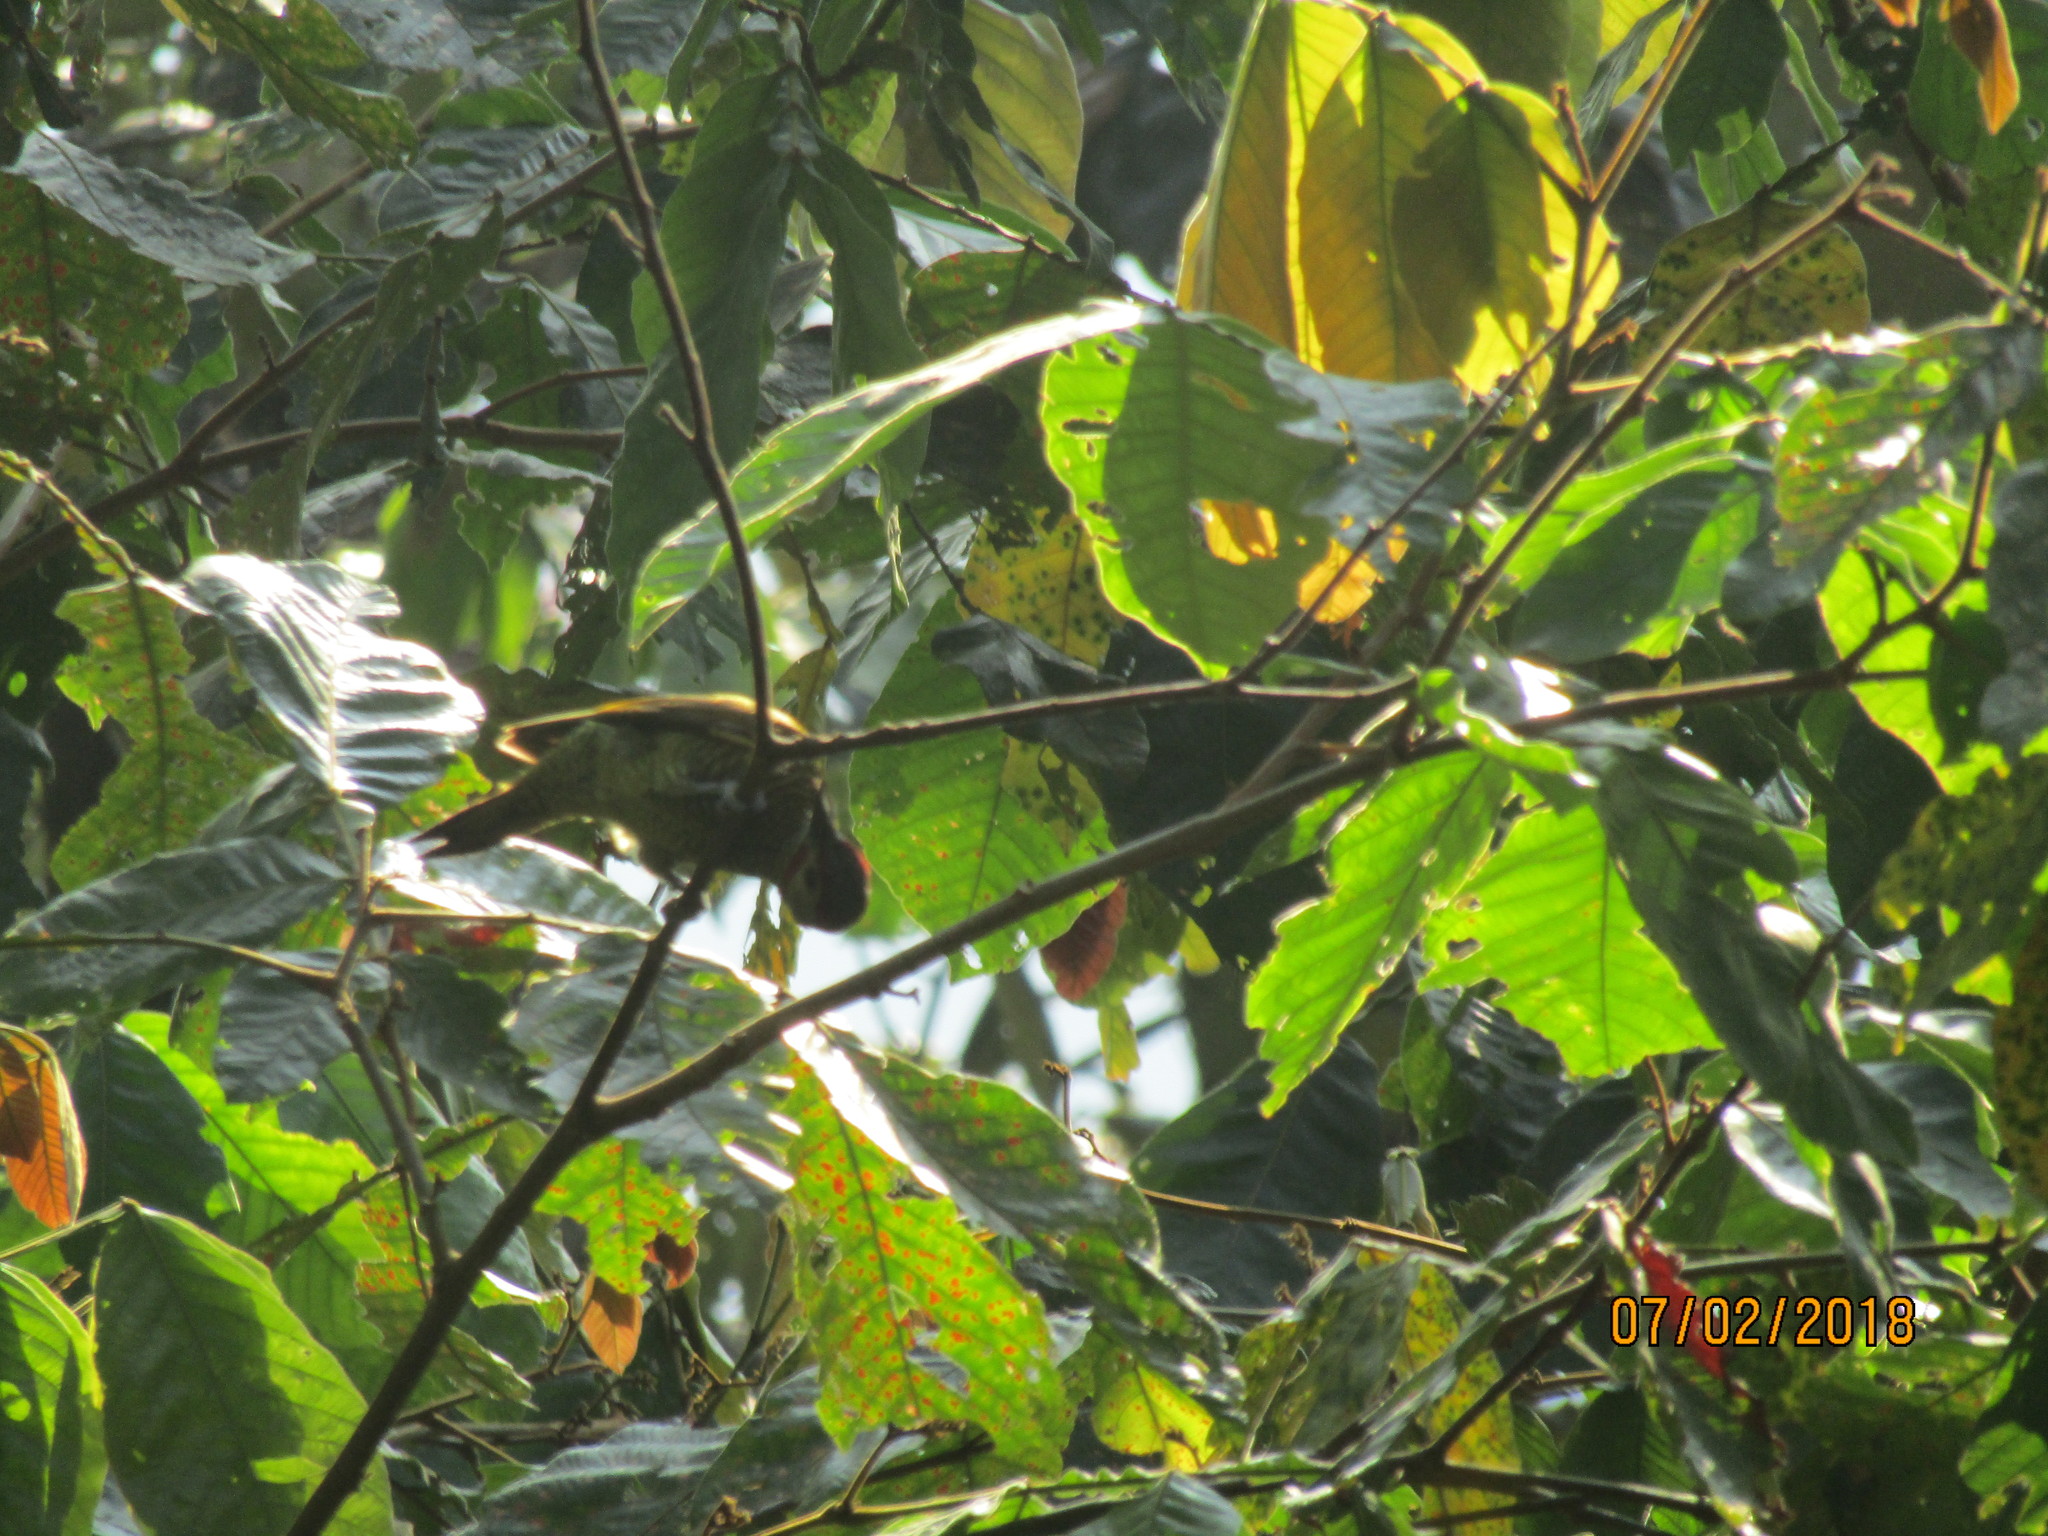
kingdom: Animalia
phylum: Chordata
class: Aves
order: Piciformes
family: Picidae
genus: Colaptes
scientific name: Colaptes rubiginosus
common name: Golden-olive woodpecker
